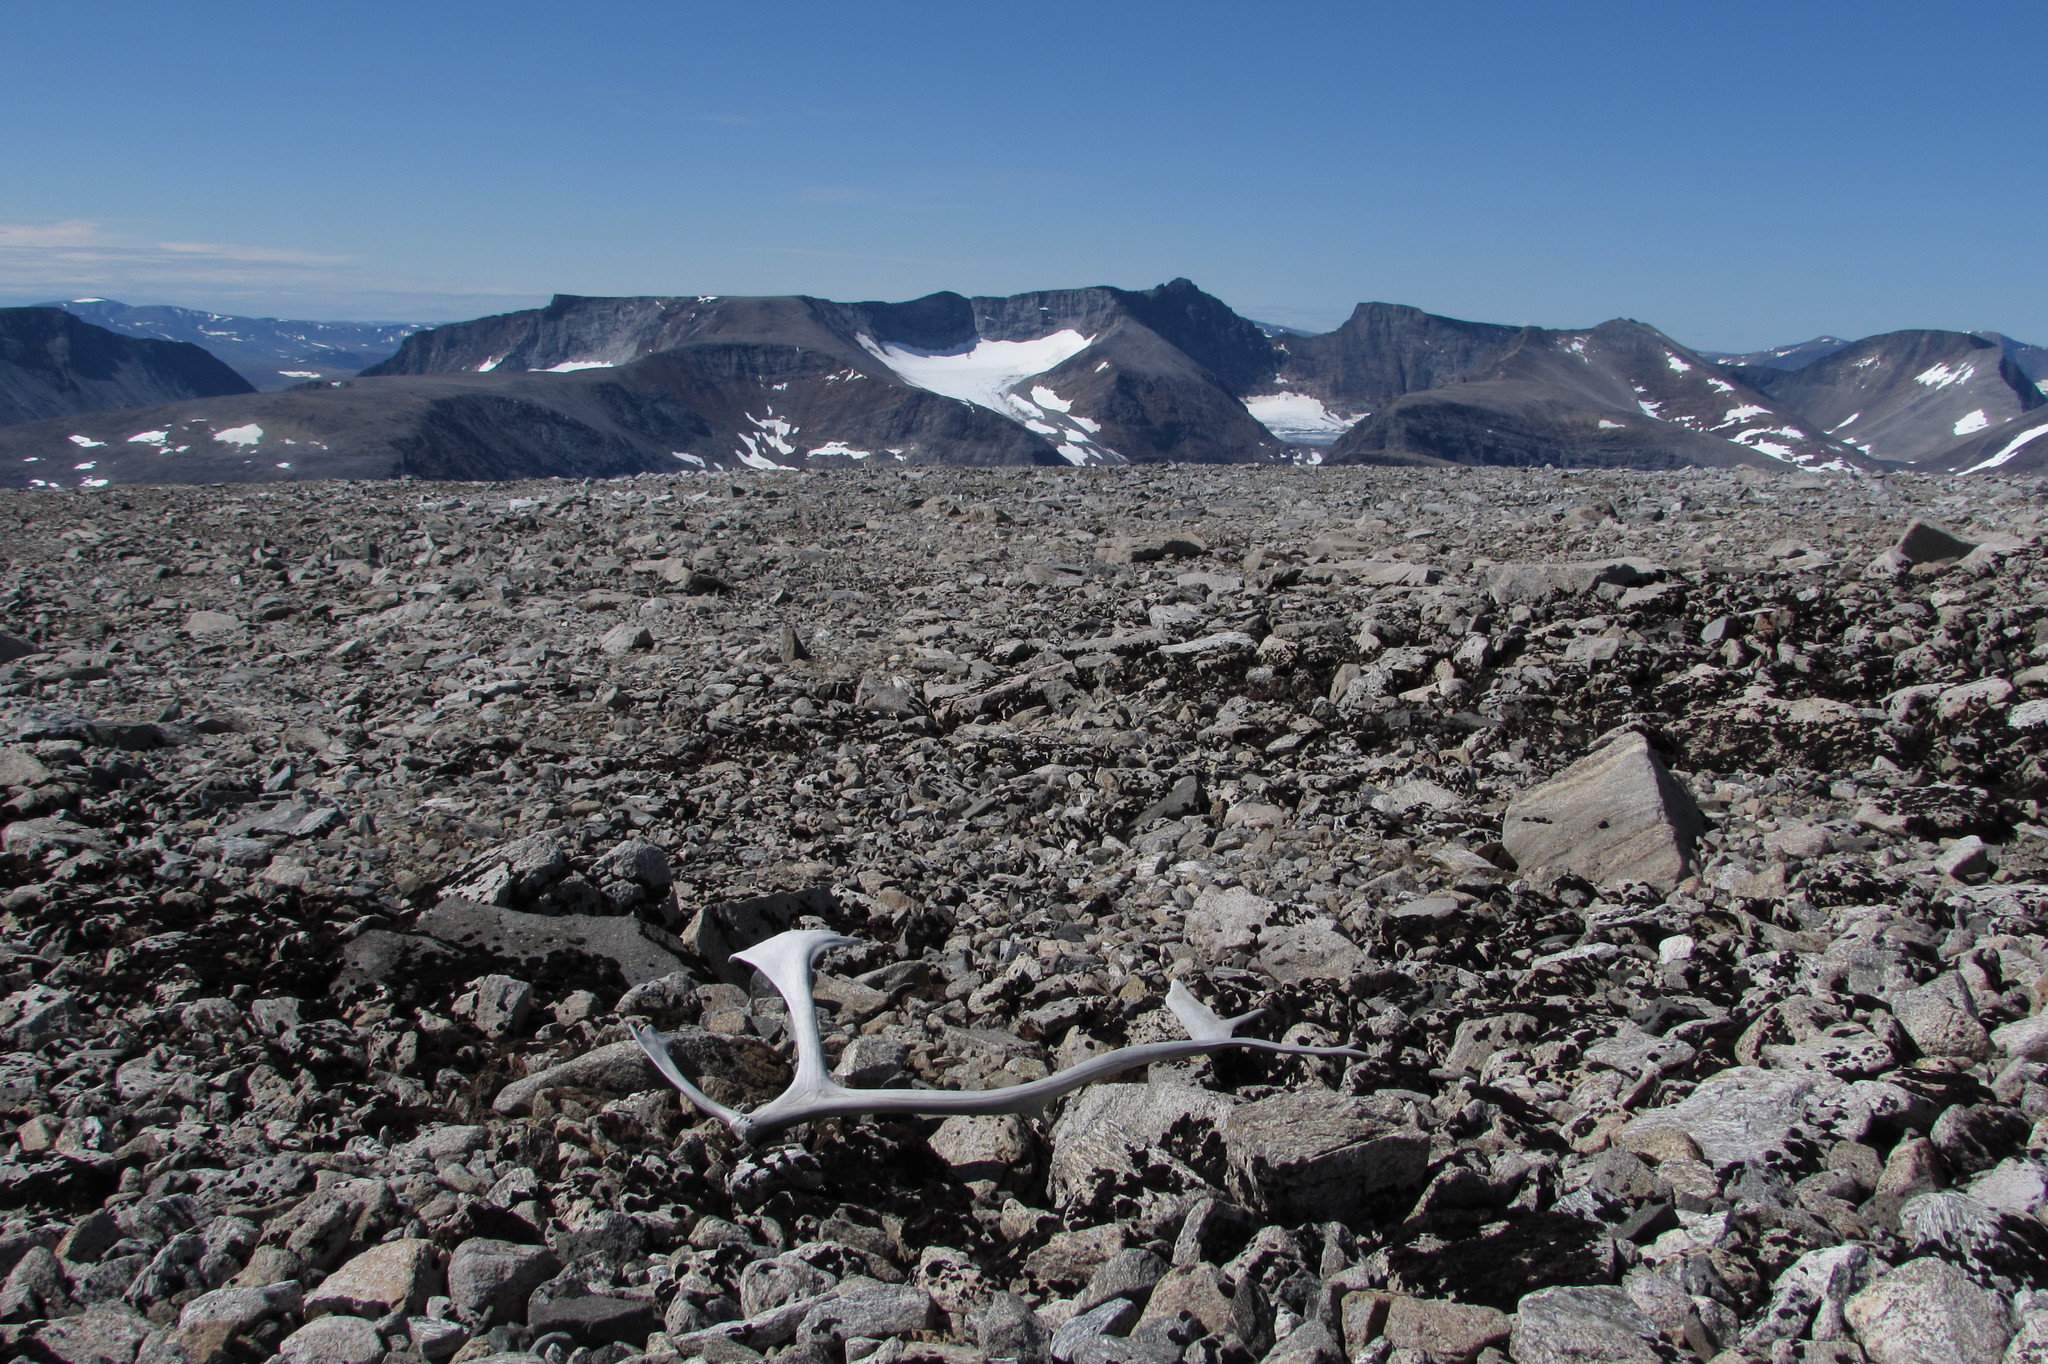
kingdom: Animalia
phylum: Chordata
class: Mammalia
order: Artiodactyla
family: Cervidae
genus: Rangifer
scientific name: Rangifer tarandus
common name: Reindeer
